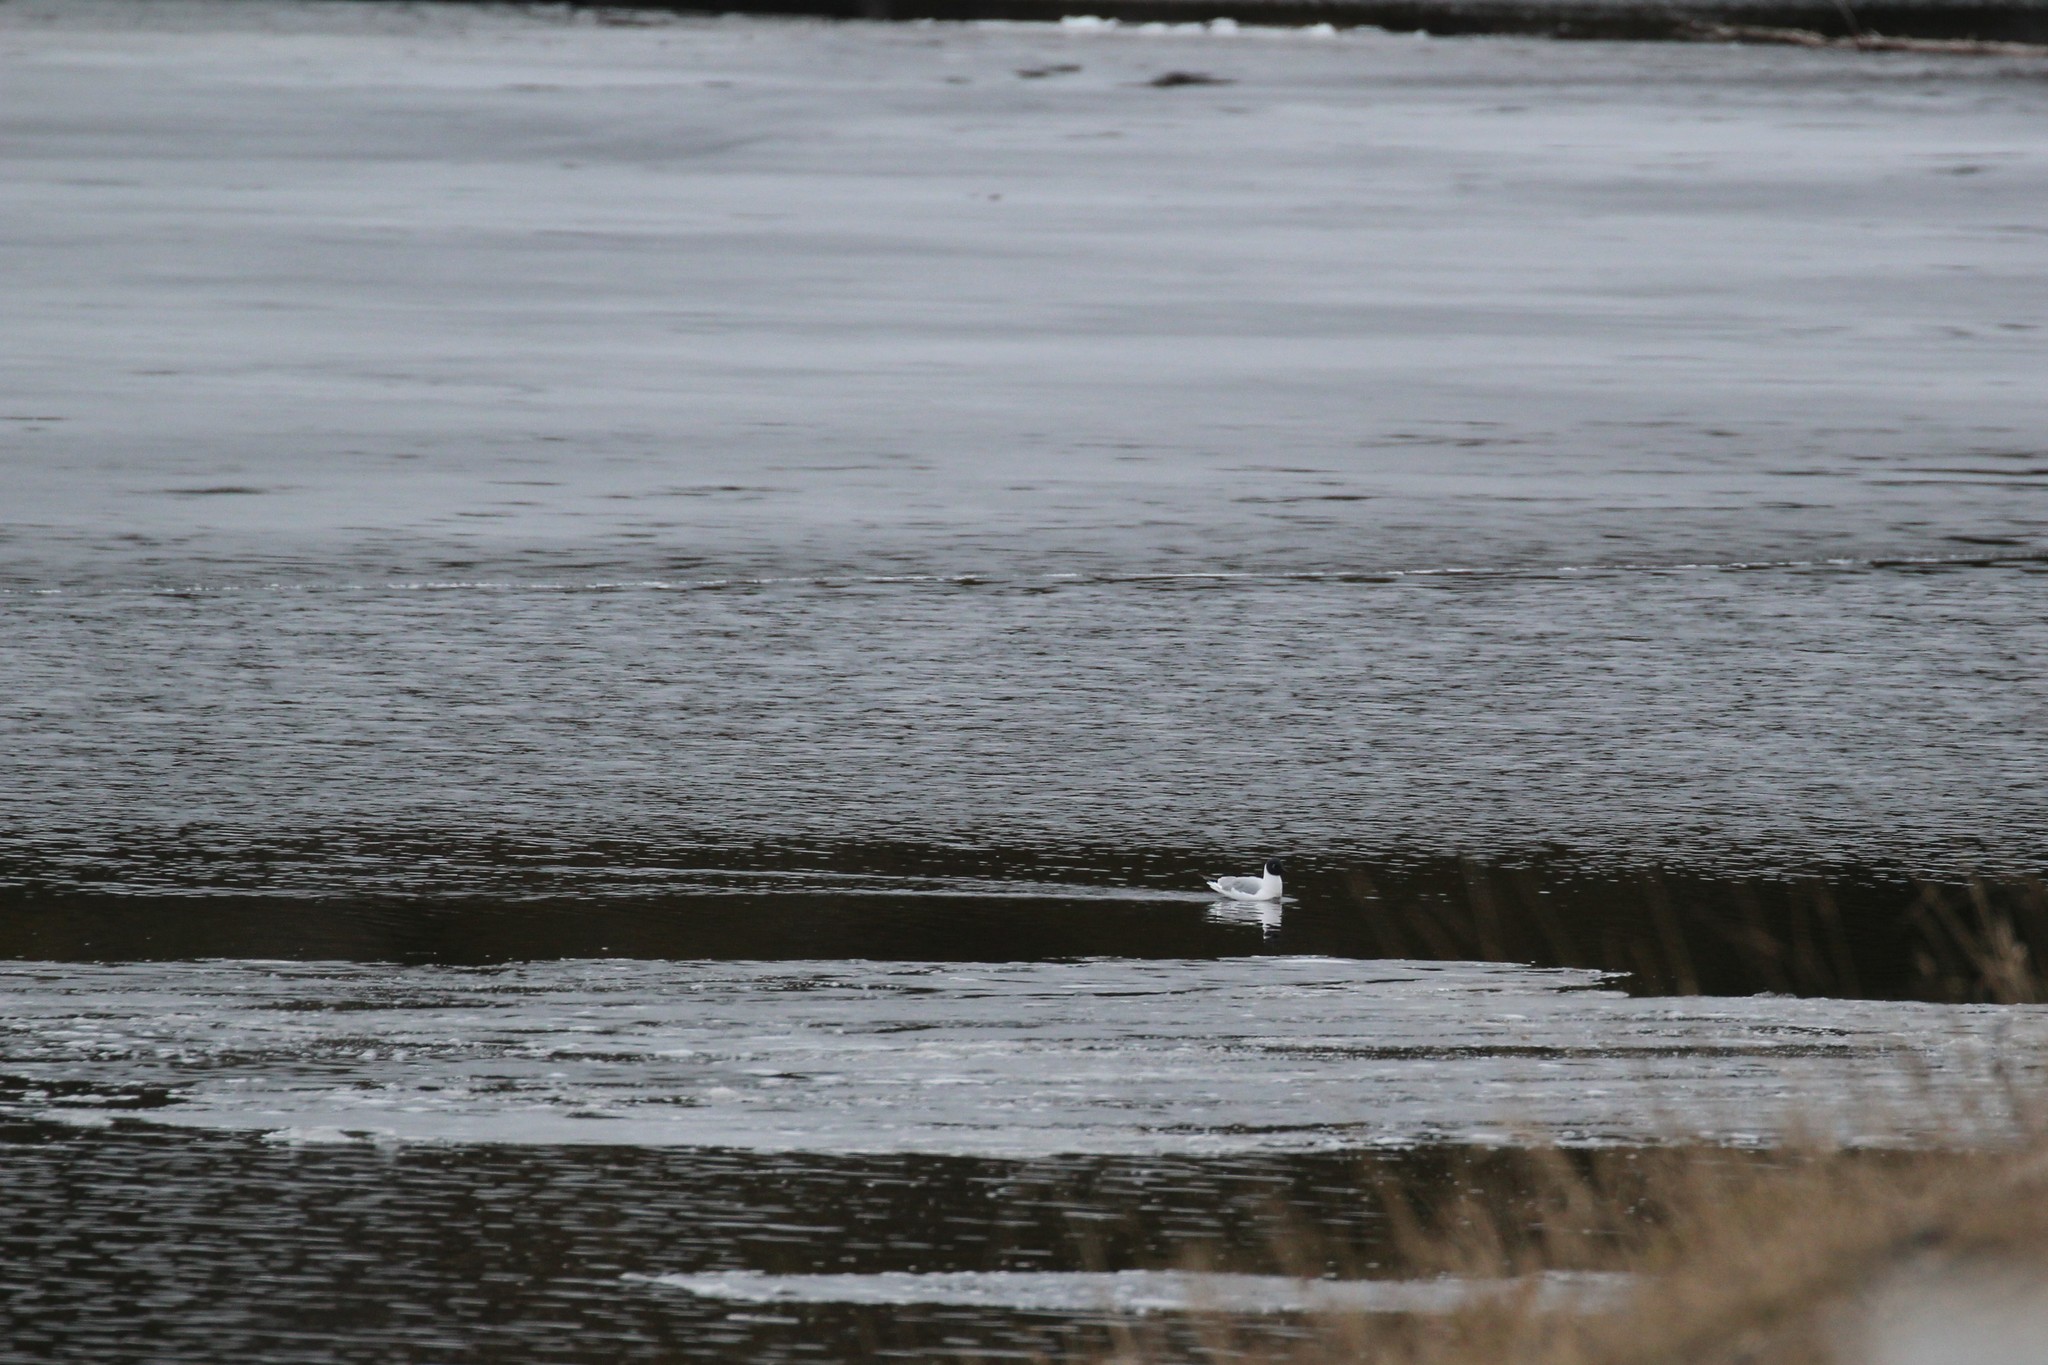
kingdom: Animalia
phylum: Chordata
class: Aves
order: Charadriiformes
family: Laridae
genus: Chroicocephalus
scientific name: Chroicocephalus philadelphia
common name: Bonaparte's gull
